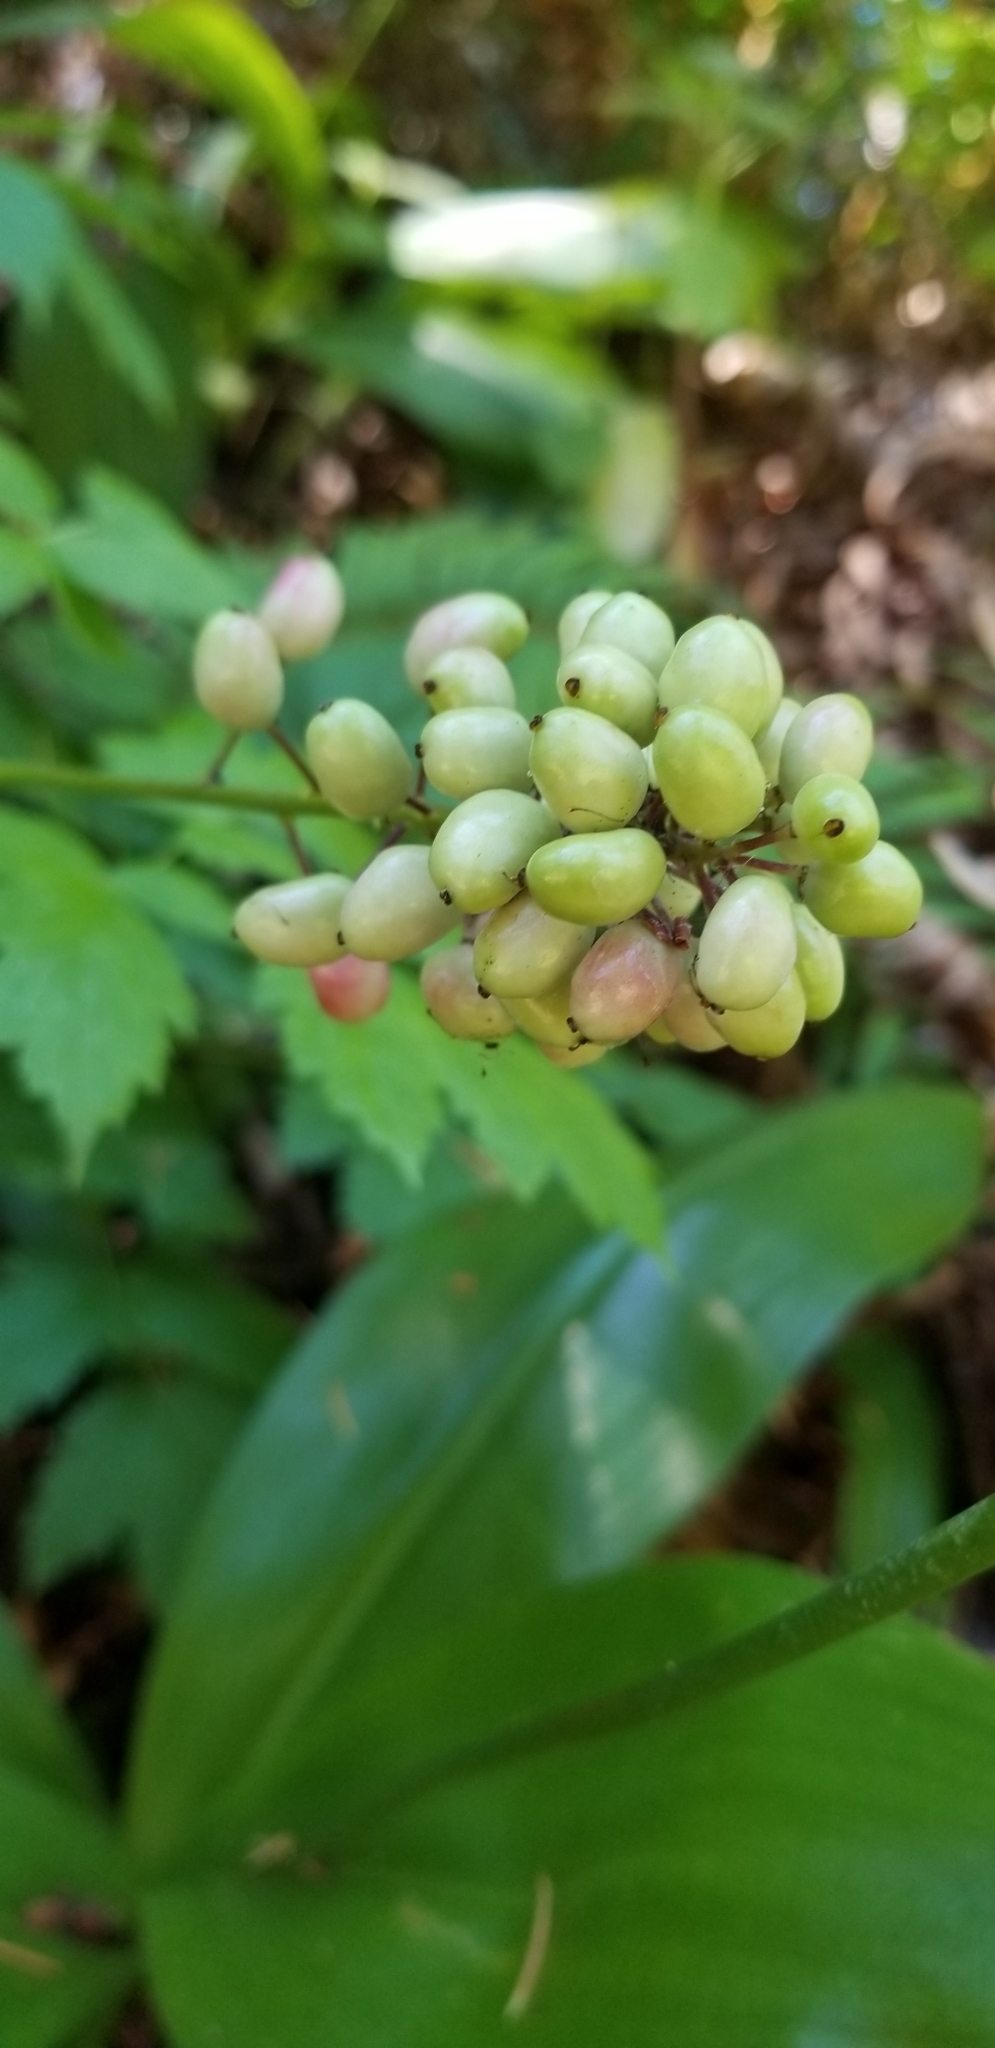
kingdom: Plantae
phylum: Tracheophyta
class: Magnoliopsida
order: Ranunculales
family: Ranunculaceae
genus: Actaea
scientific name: Actaea rubra
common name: Red baneberry
